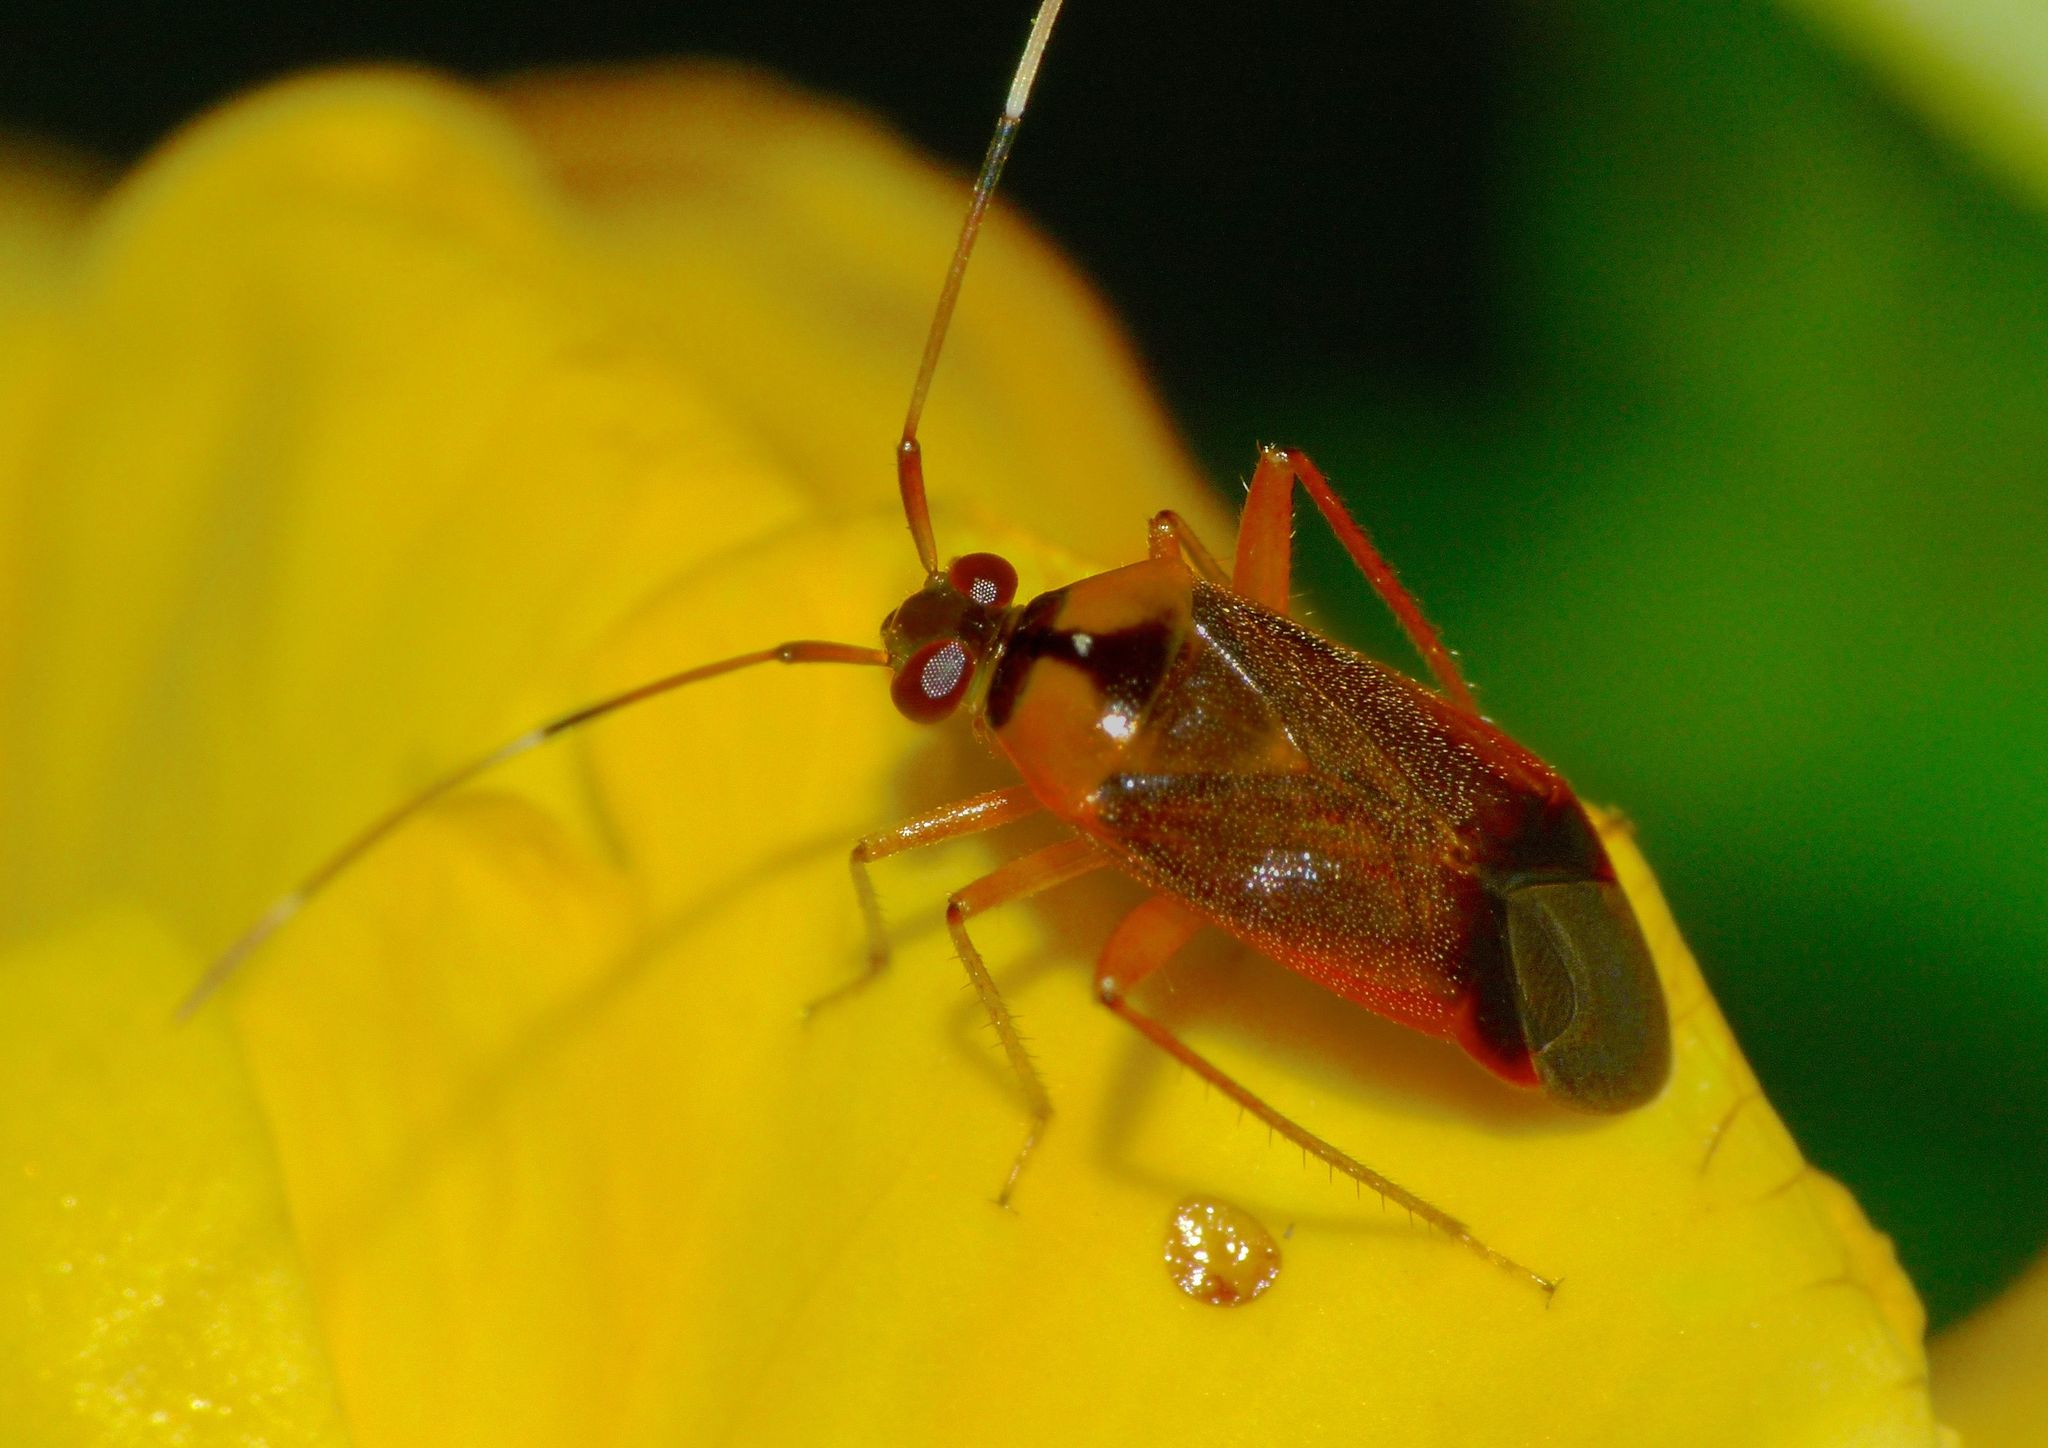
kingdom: Animalia
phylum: Arthropoda
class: Insecta
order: Hemiptera
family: Miridae
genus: Poppiocapsidea
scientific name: Poppiocapsidea biseratense
